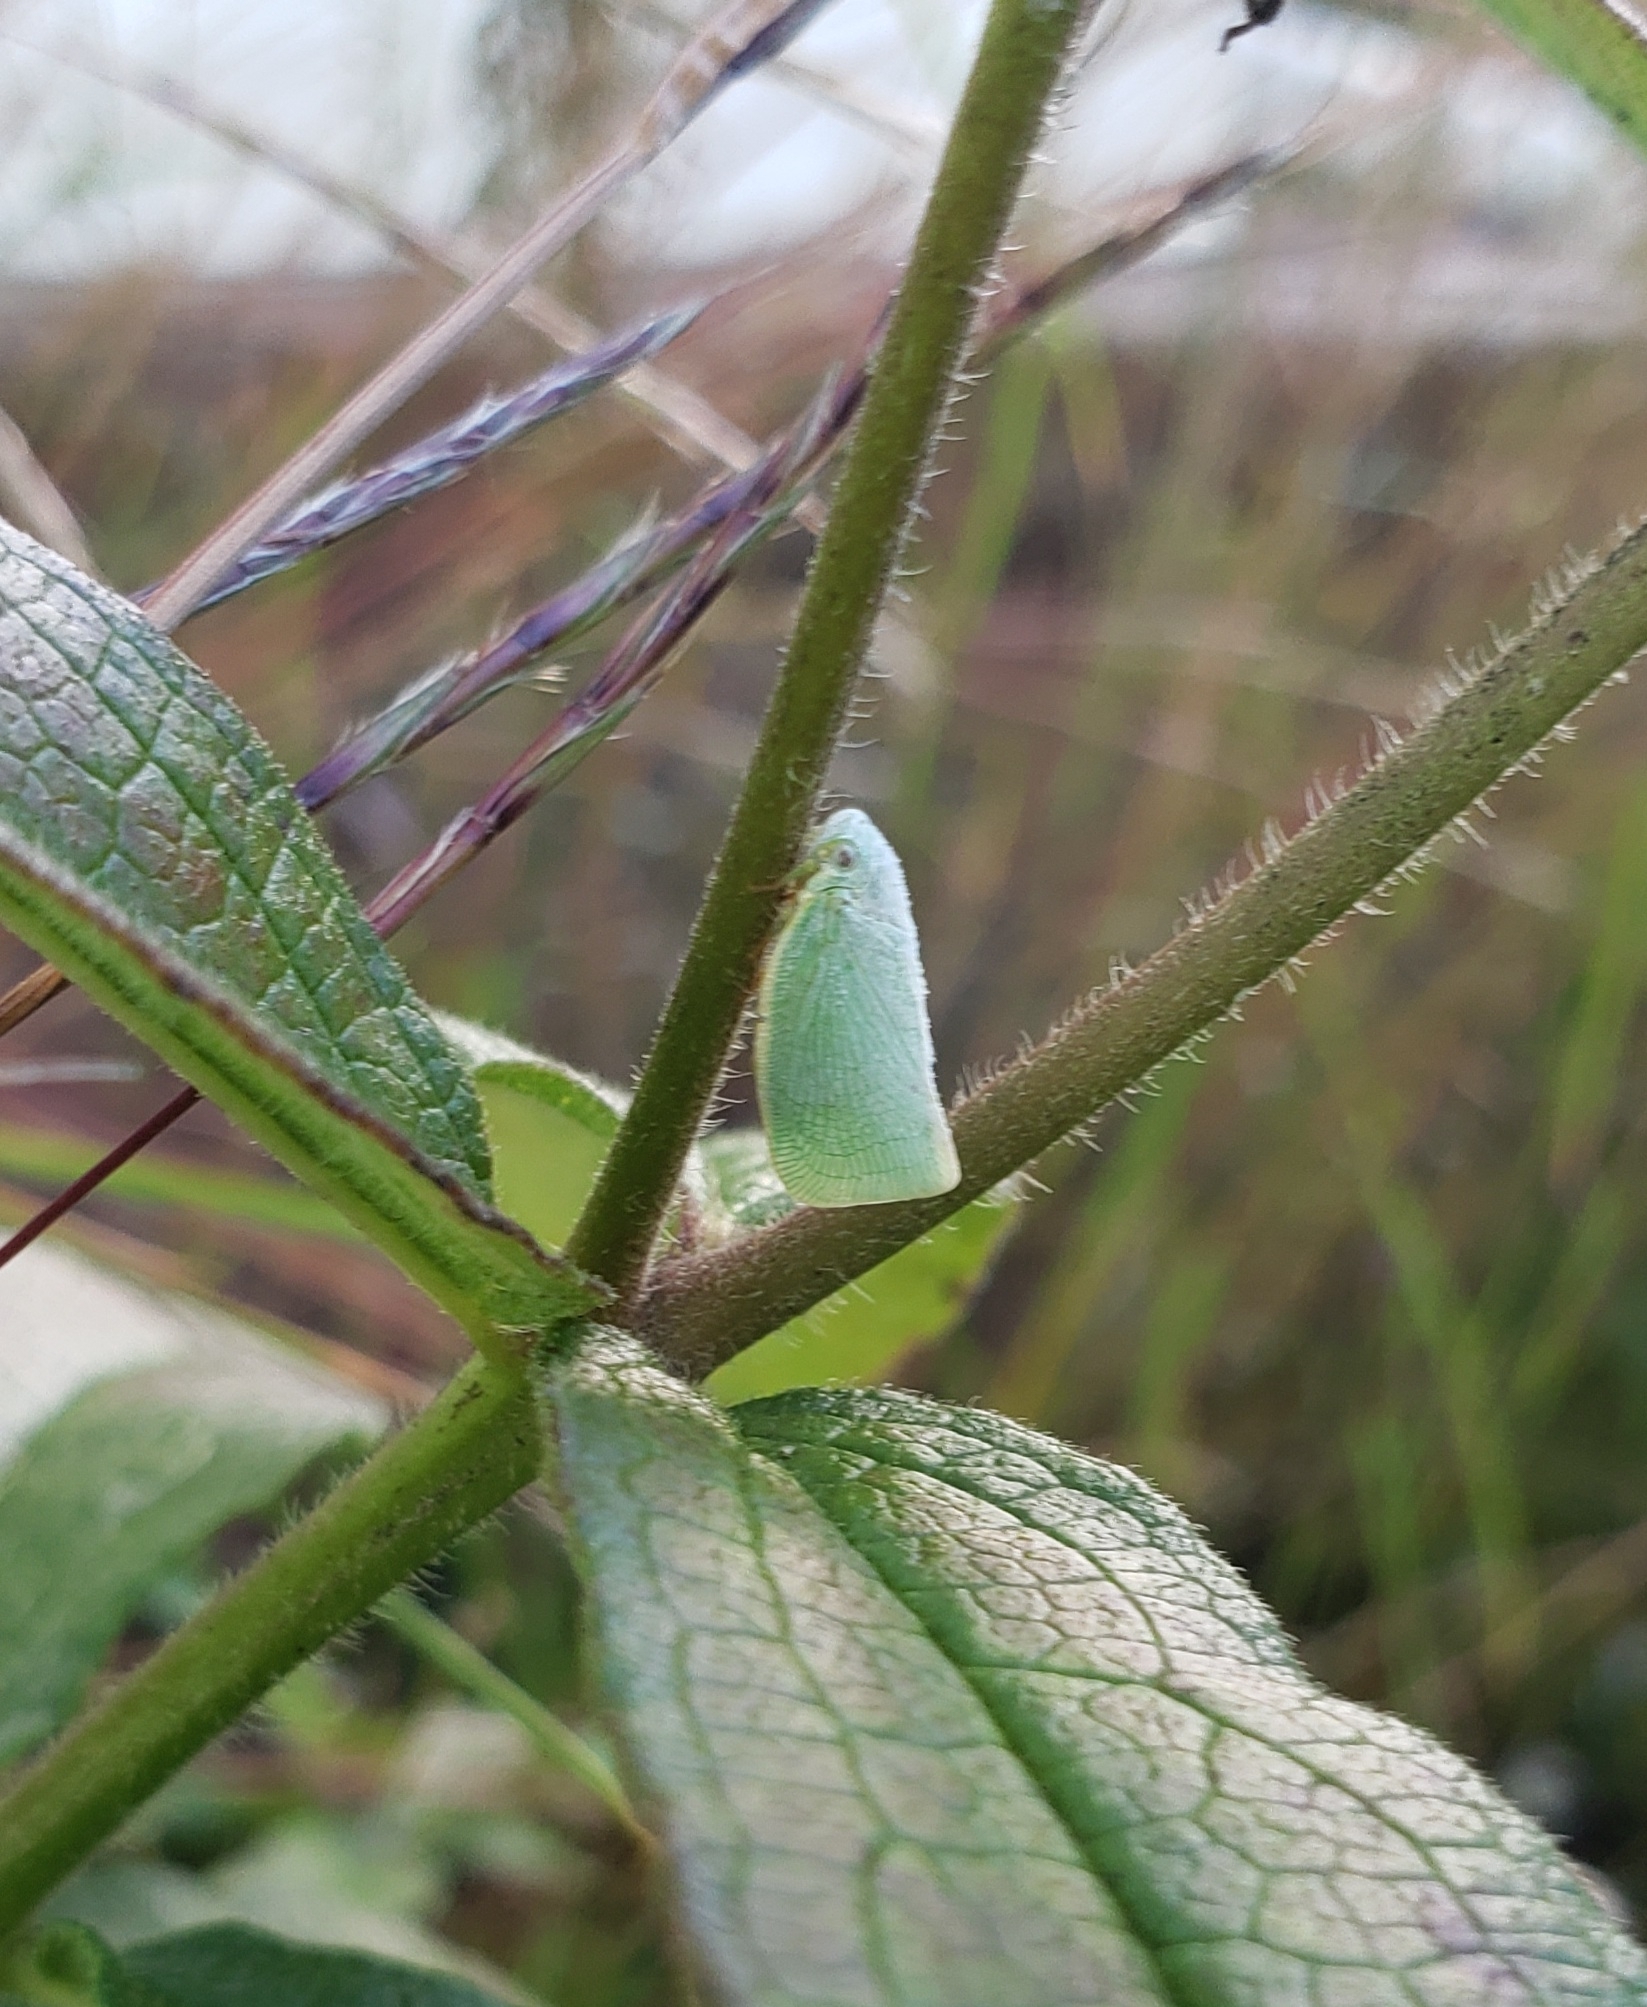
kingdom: Animalia
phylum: Arthropoda
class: Insecta
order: Hemiptera
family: Flatidae
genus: Flatormenis
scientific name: Flatormenis proxima
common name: Northern flatid planthopper
